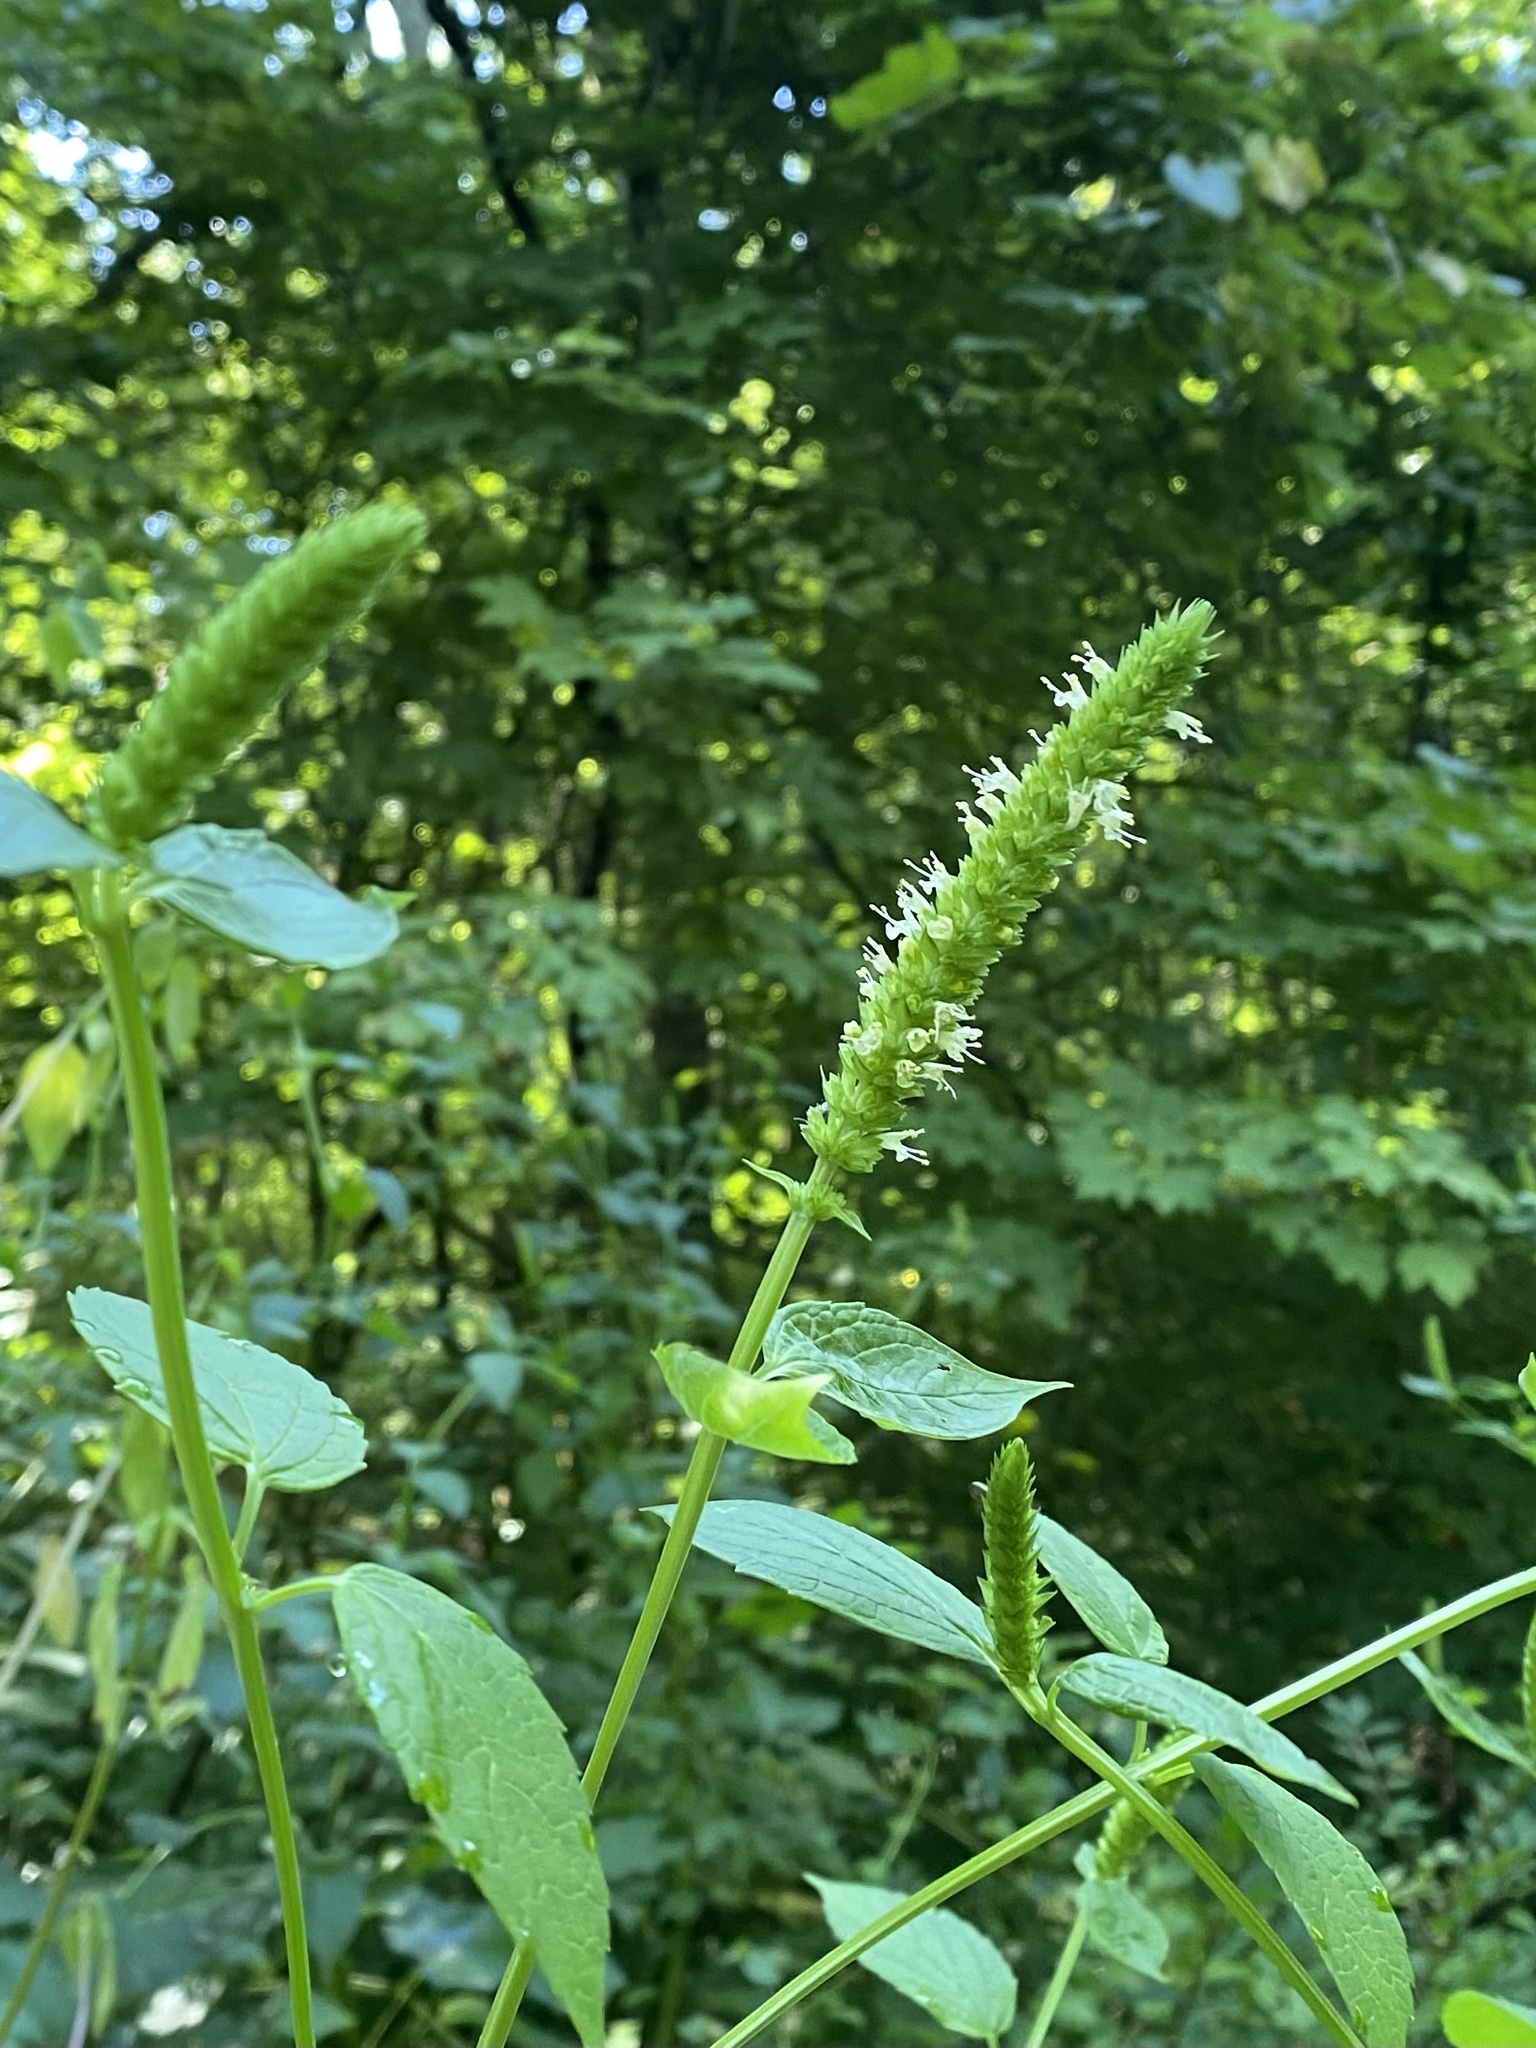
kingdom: Plantae
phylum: Tracheophyta
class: Magnoliopsida
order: Lamiales
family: Lamiaceae
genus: Agastache
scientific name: Agastache nepetoides
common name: Catnip giant hyssop
